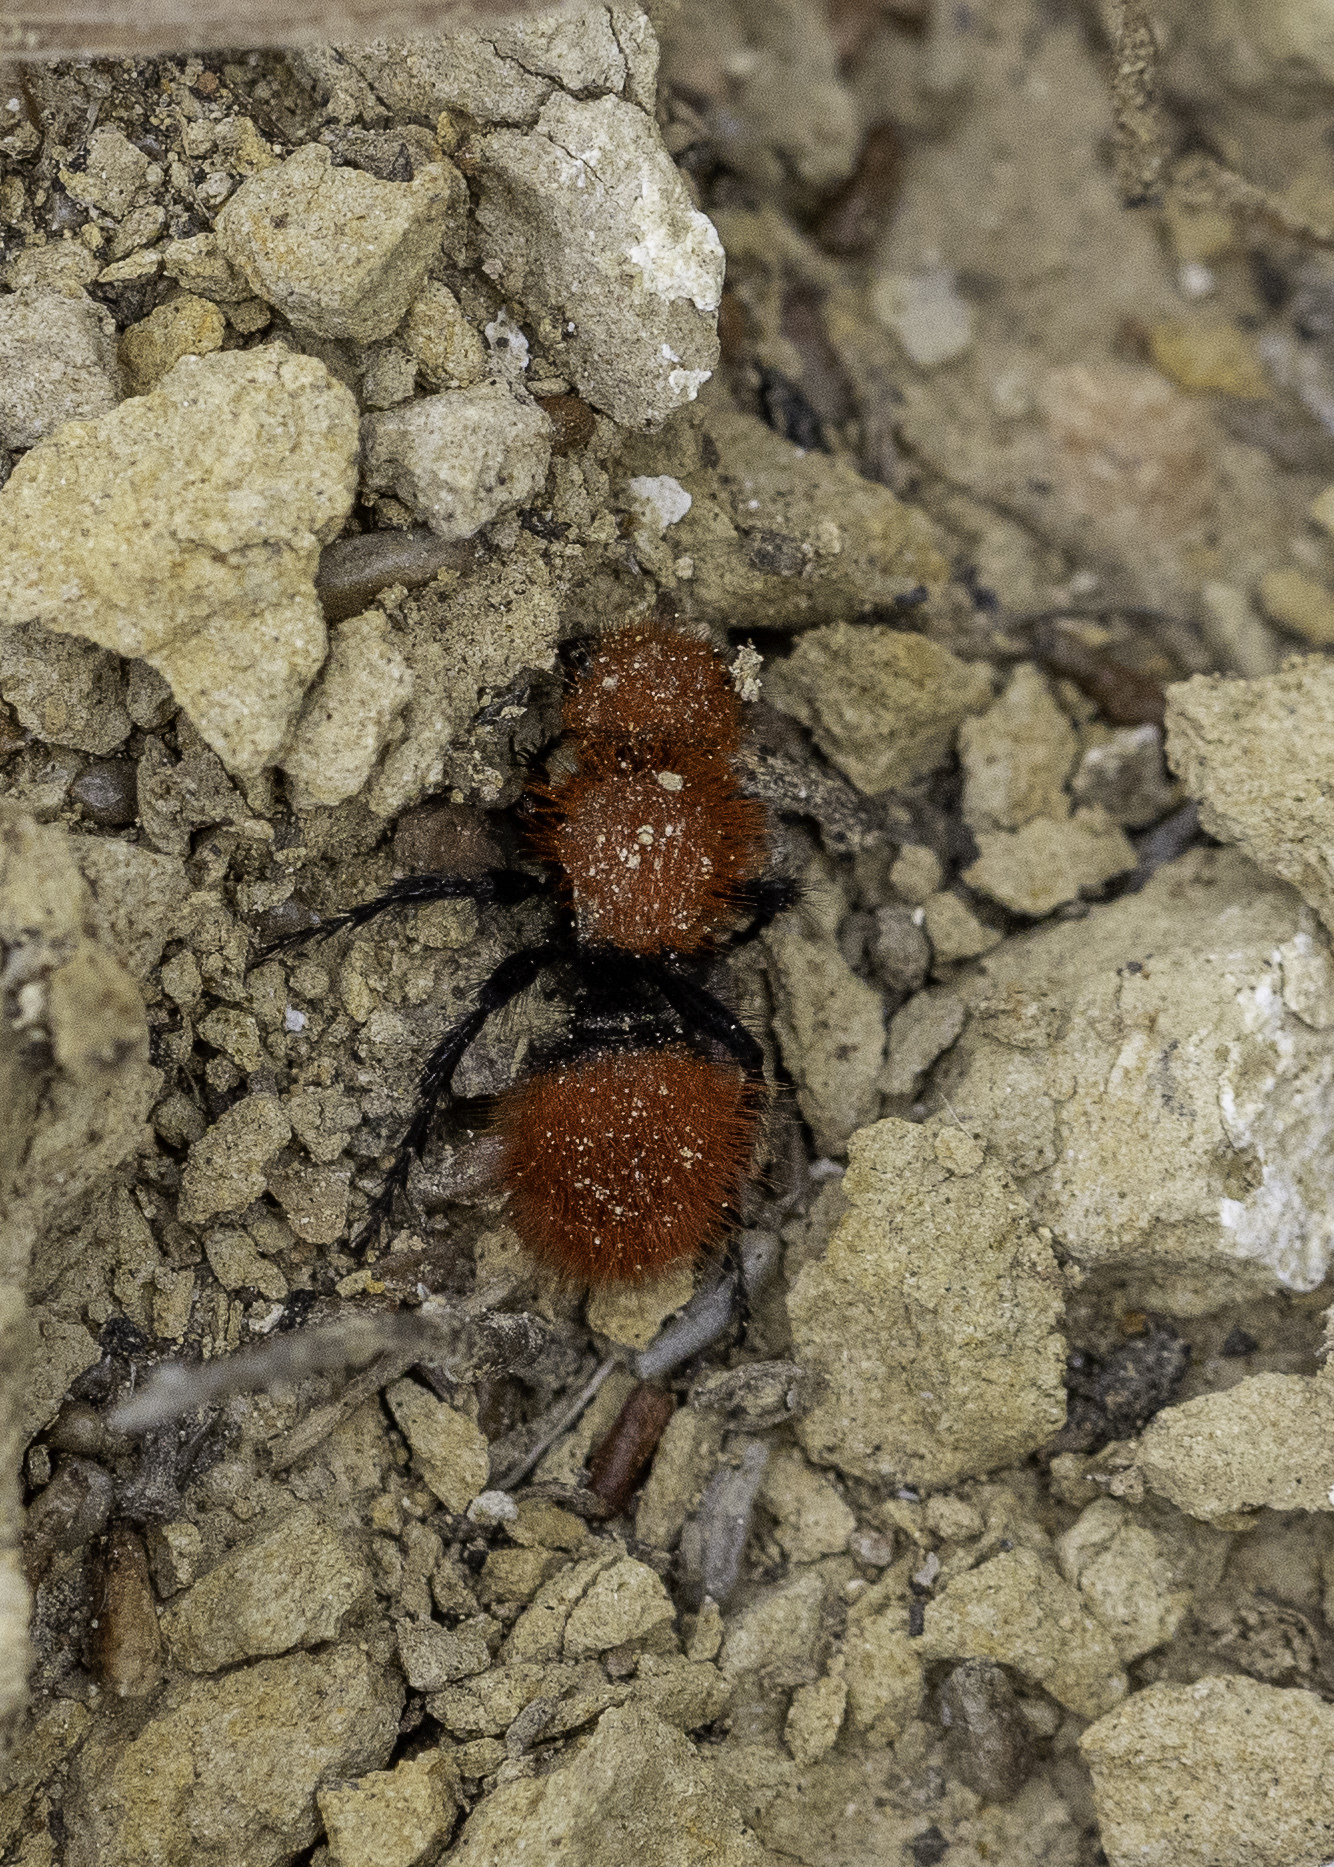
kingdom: Animalia
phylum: Arthropoda
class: Insecta
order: Hymenoptera
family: Mutillidae
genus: Dasymutilla
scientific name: Dasymutilla
